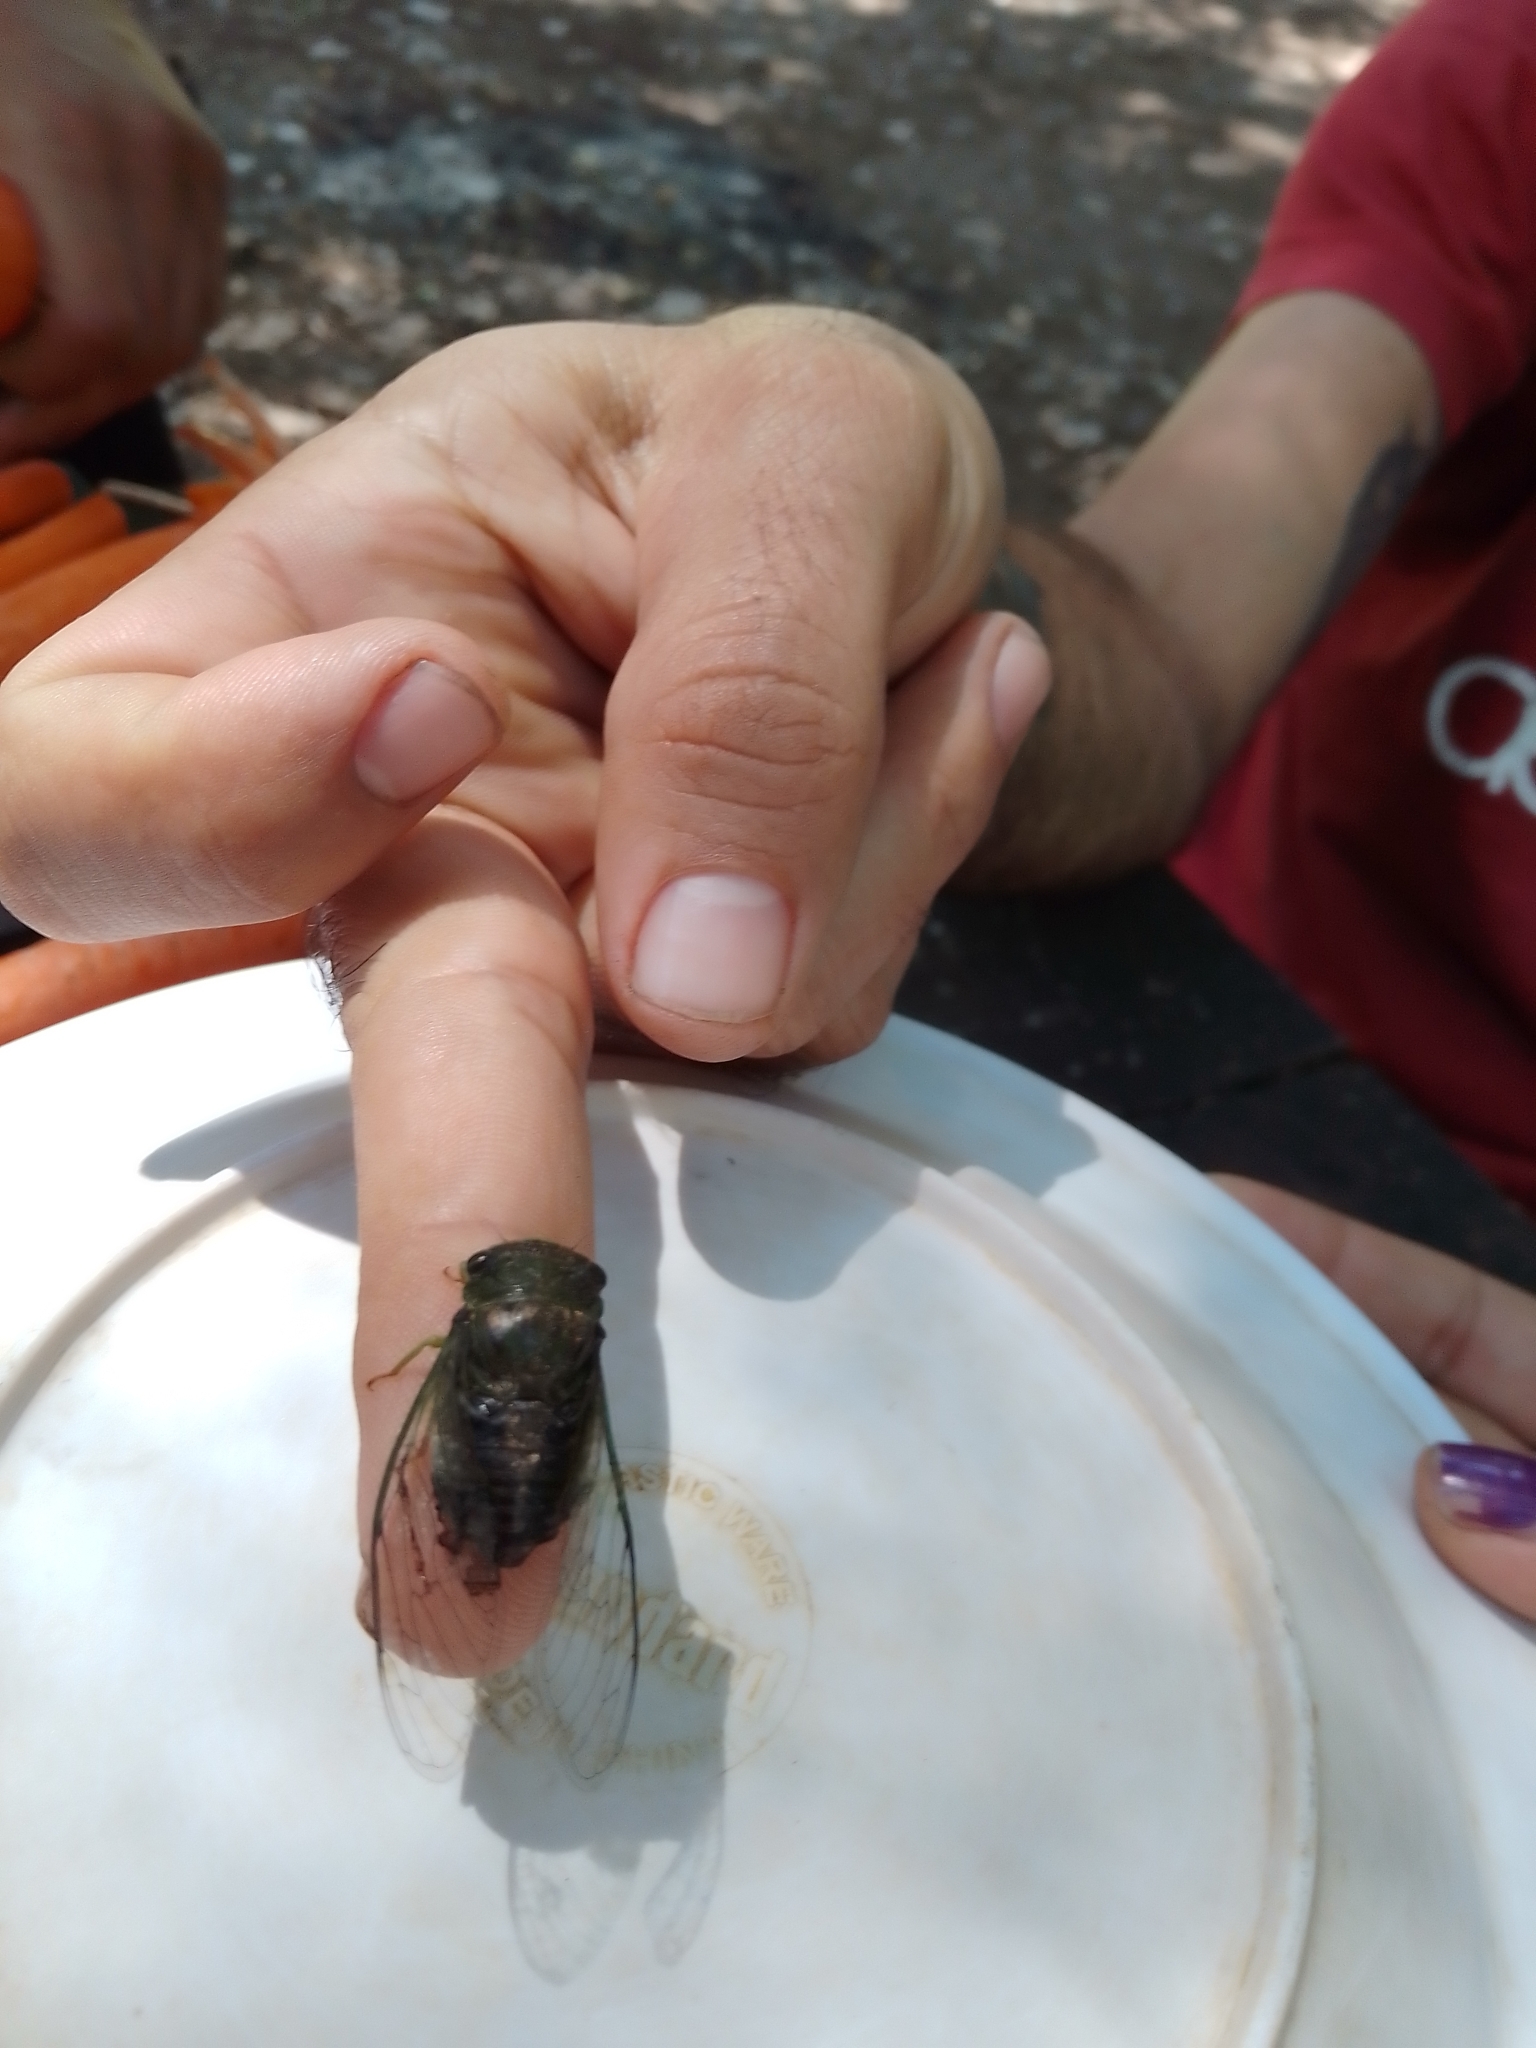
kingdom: Animalia
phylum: Arthropoda
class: Insecta
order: Hemiptera
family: Cicadidae
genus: Acanthoventris
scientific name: Acanthoventris drewseni
